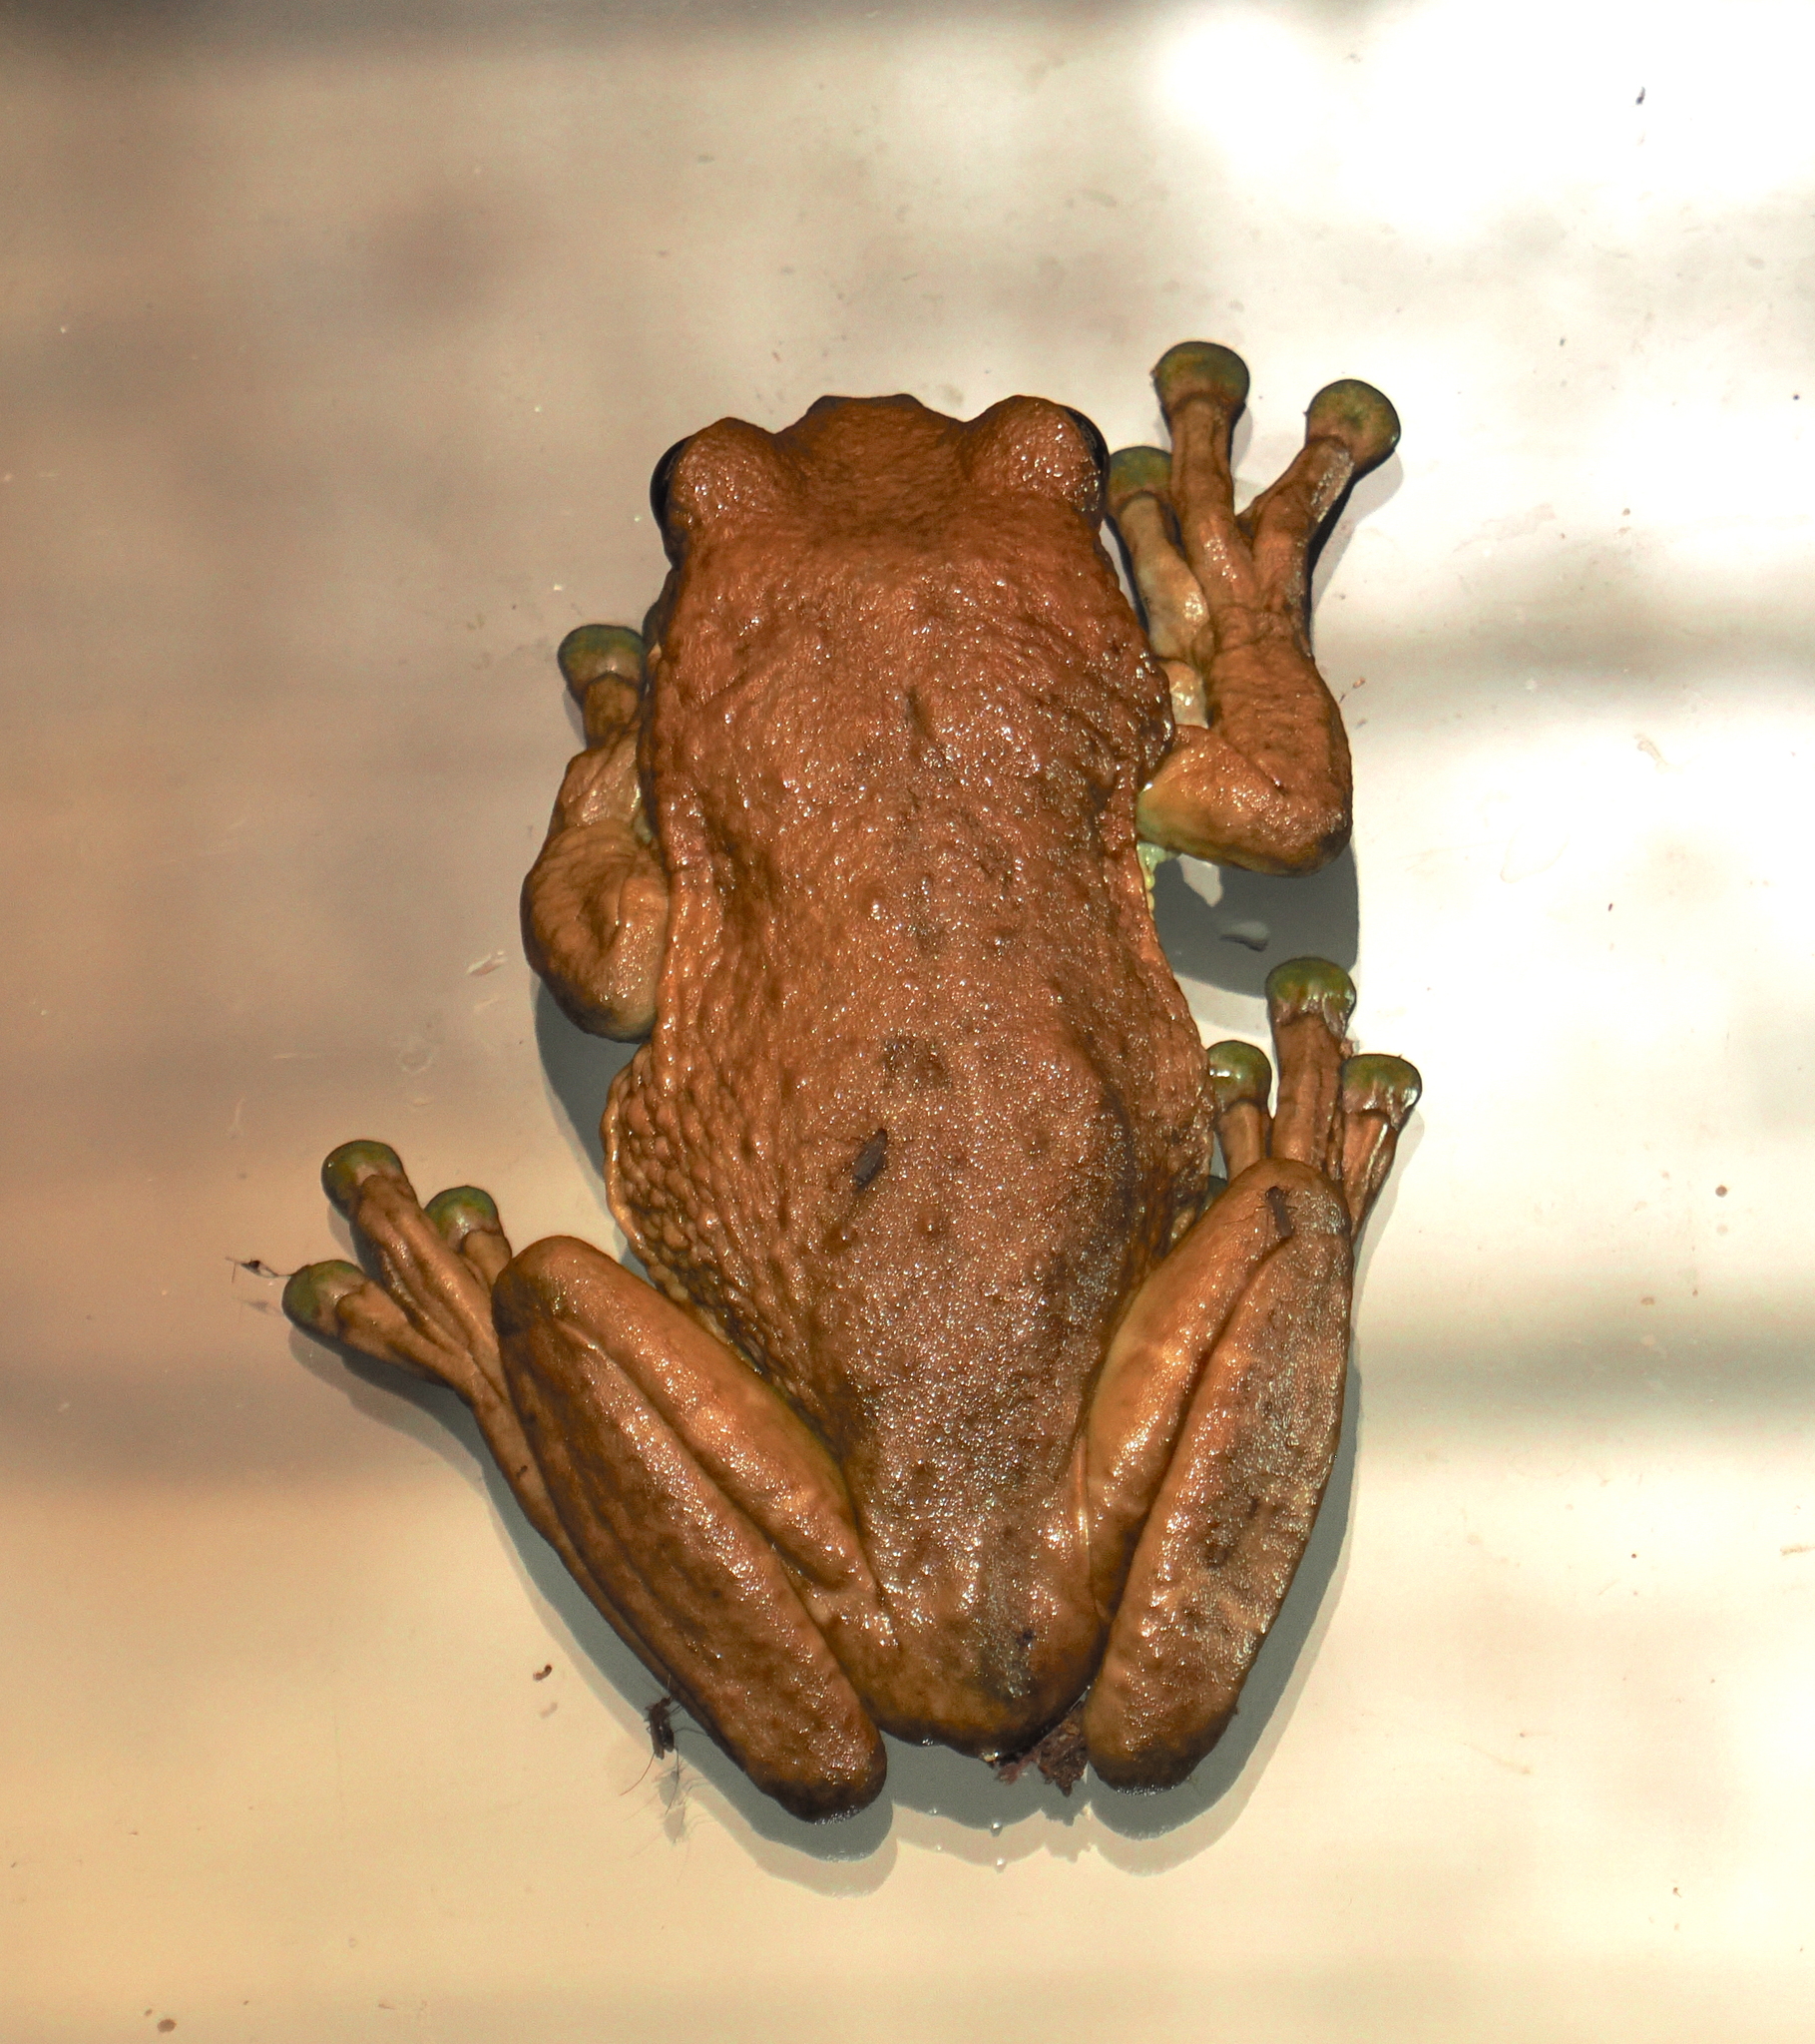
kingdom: Animalia
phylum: Chordata
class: Amphibia
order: Anura
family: Hylidae
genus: Trachycephalus
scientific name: Trachycephalus typhonius
